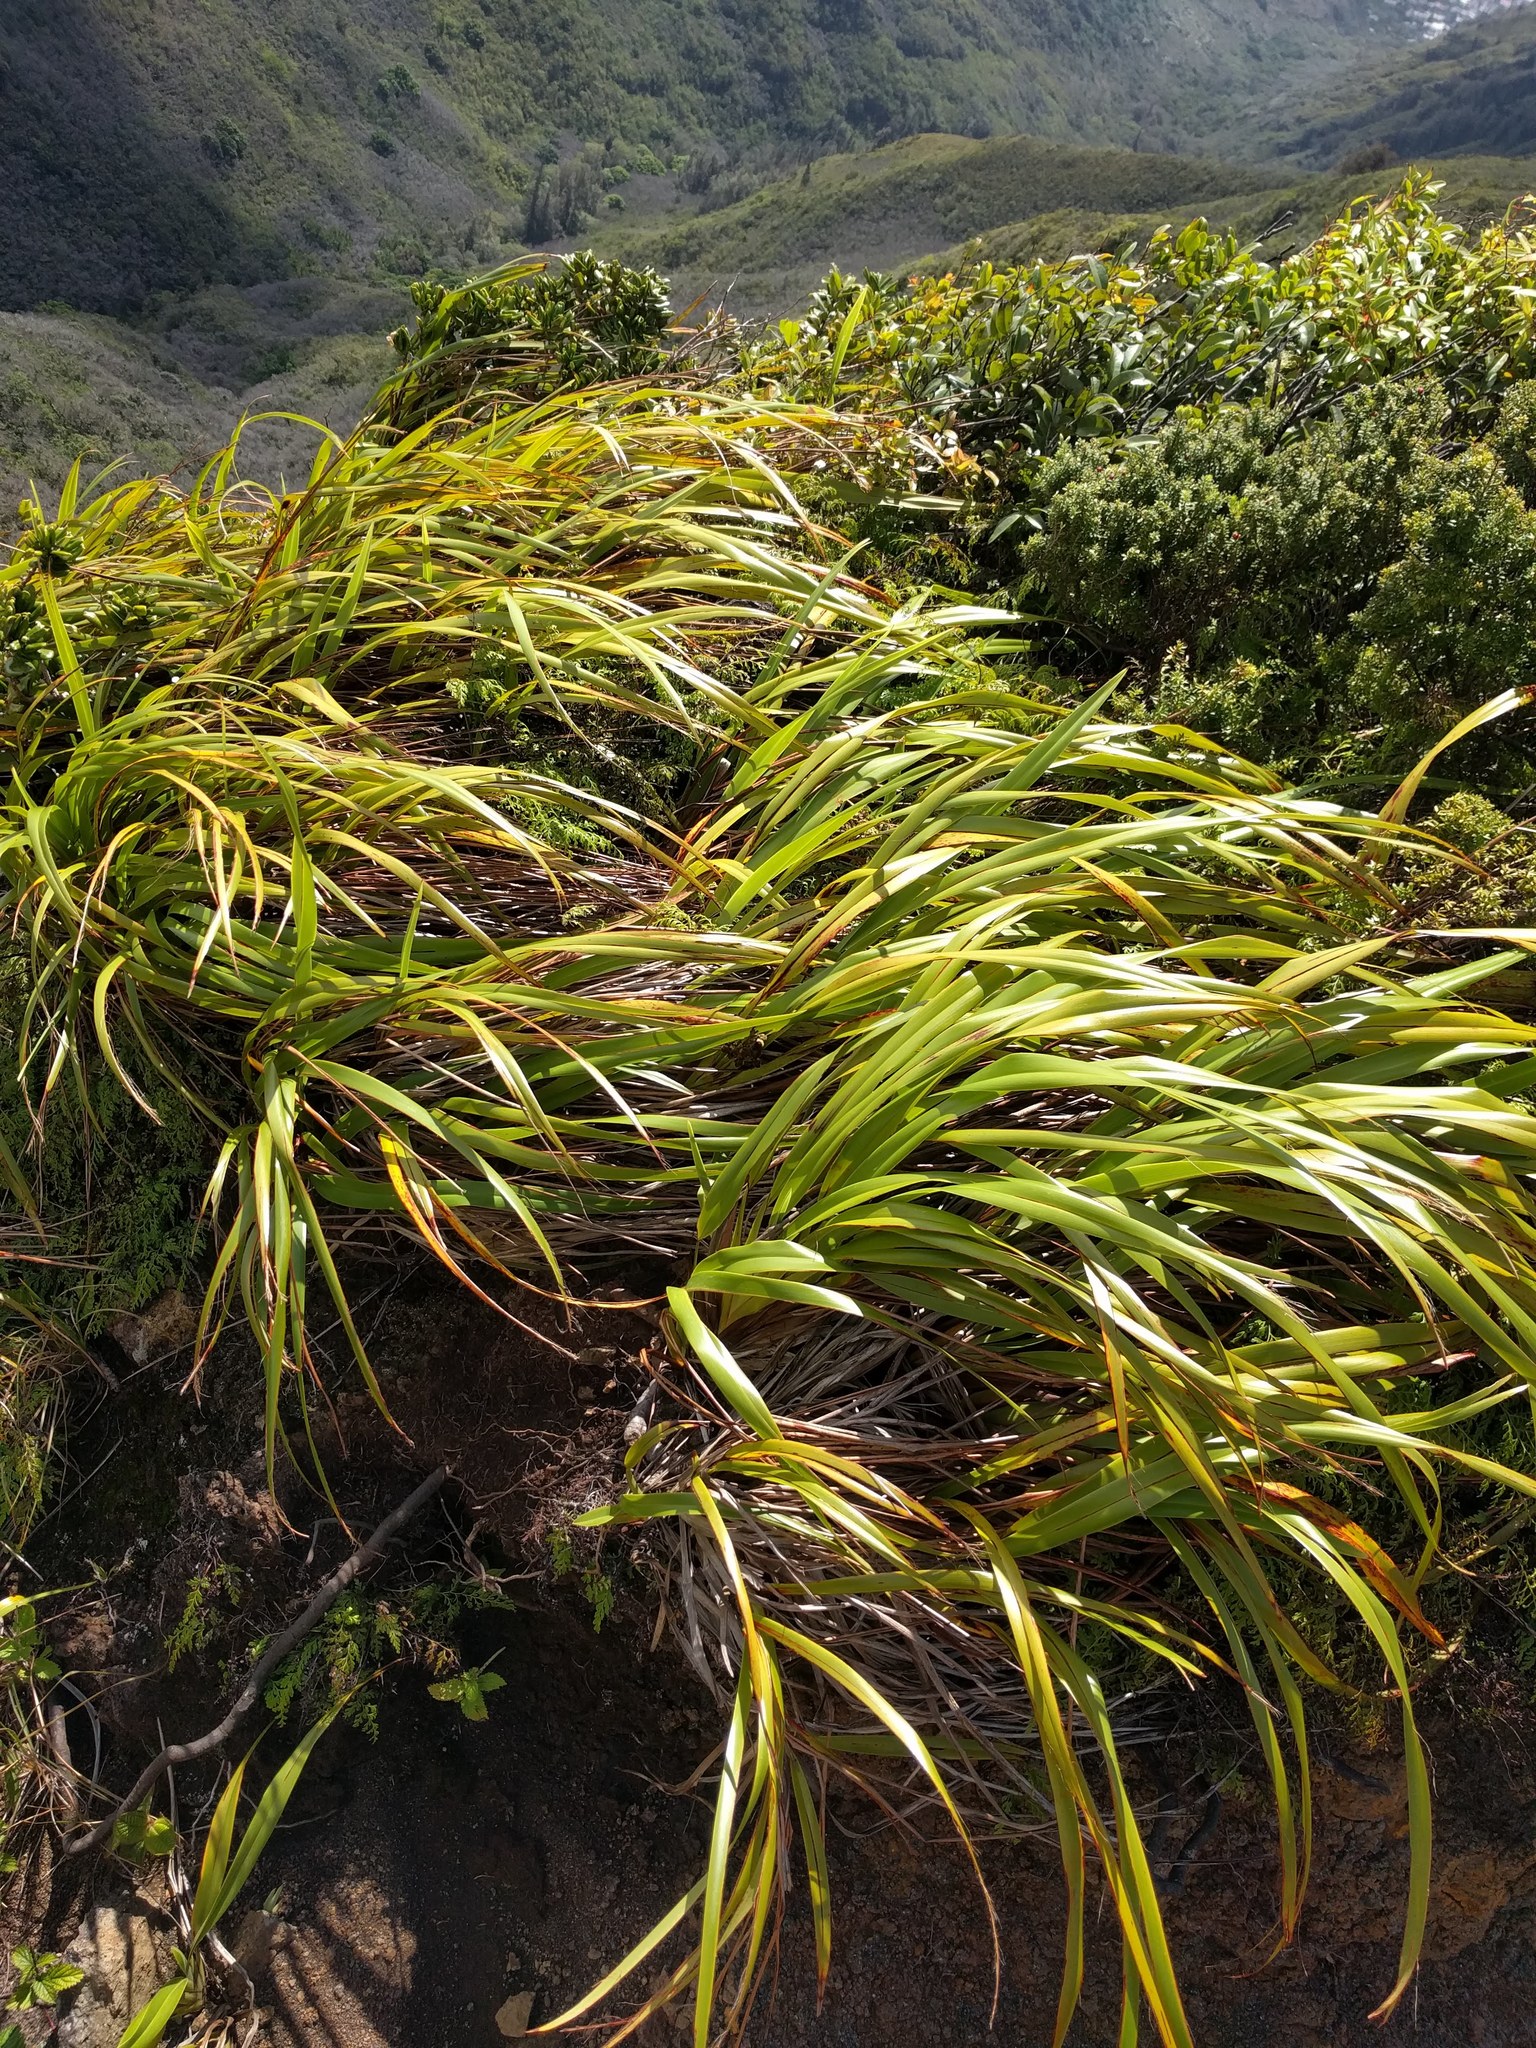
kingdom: Plantae
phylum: Tracheophyta
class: Liliopsida
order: Asparagales
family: Asphodelaceae
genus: Dianella
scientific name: Dianella sandwicensis
